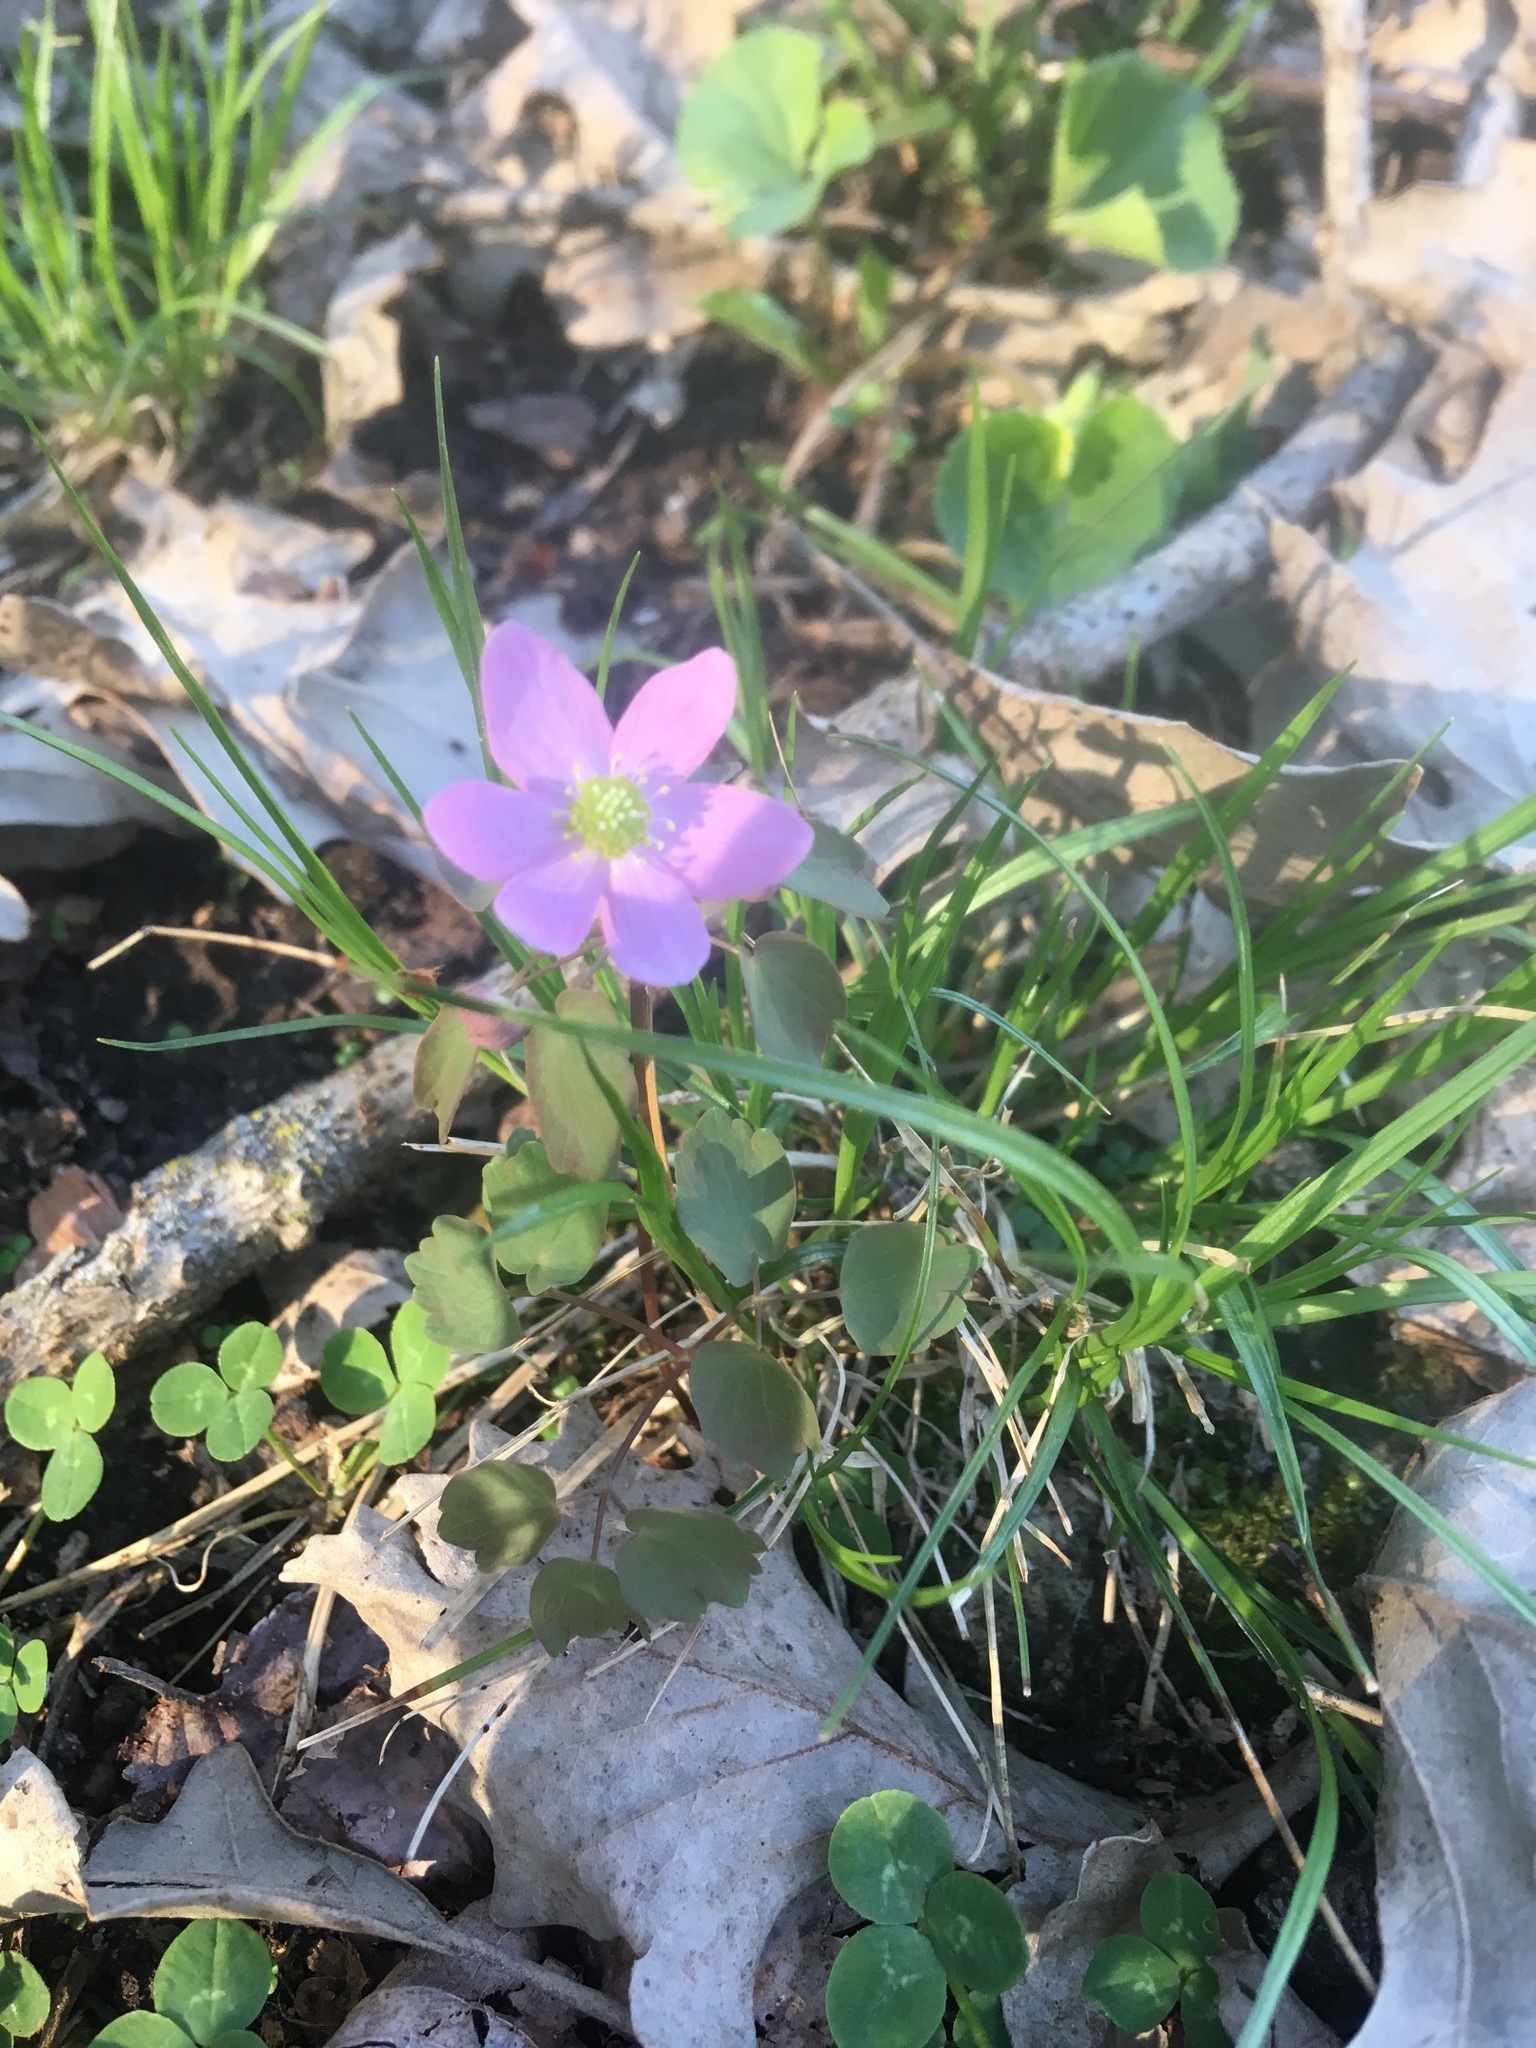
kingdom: Plantae
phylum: Tracheophyta
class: Magnoliopsida
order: Ranunculales
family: Ranunculaceae
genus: Thalictrum
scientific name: Thalictrum thalictroides
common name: Rue-anemone
